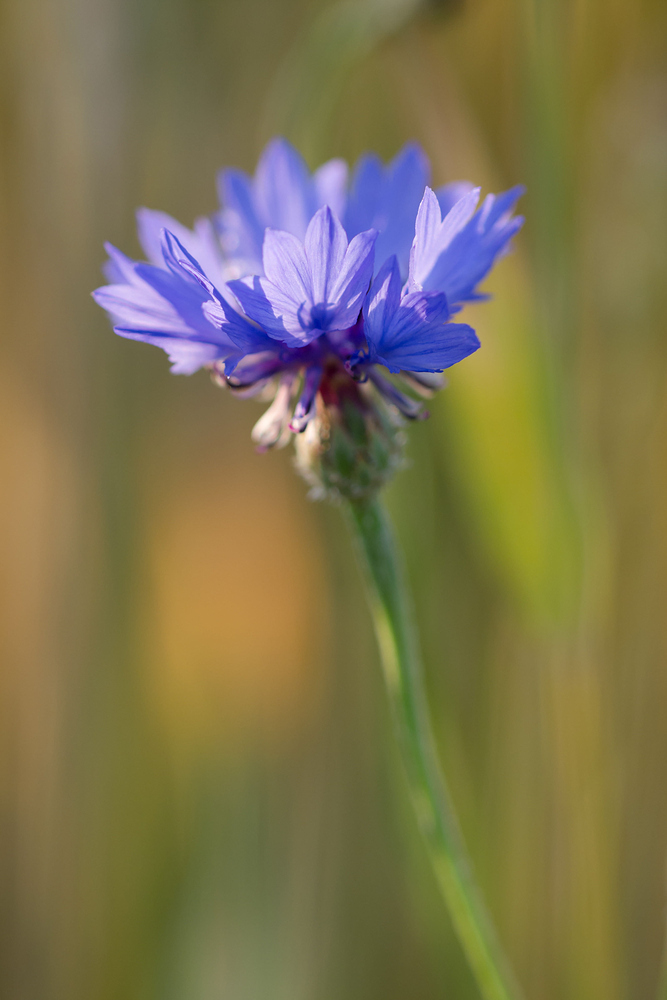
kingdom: Plantae
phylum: Tracheophyta
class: Magnoliopsida
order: Asterales
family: Asteraceae
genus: Centaurea
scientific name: Centaurea cyanus
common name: Cornflower
